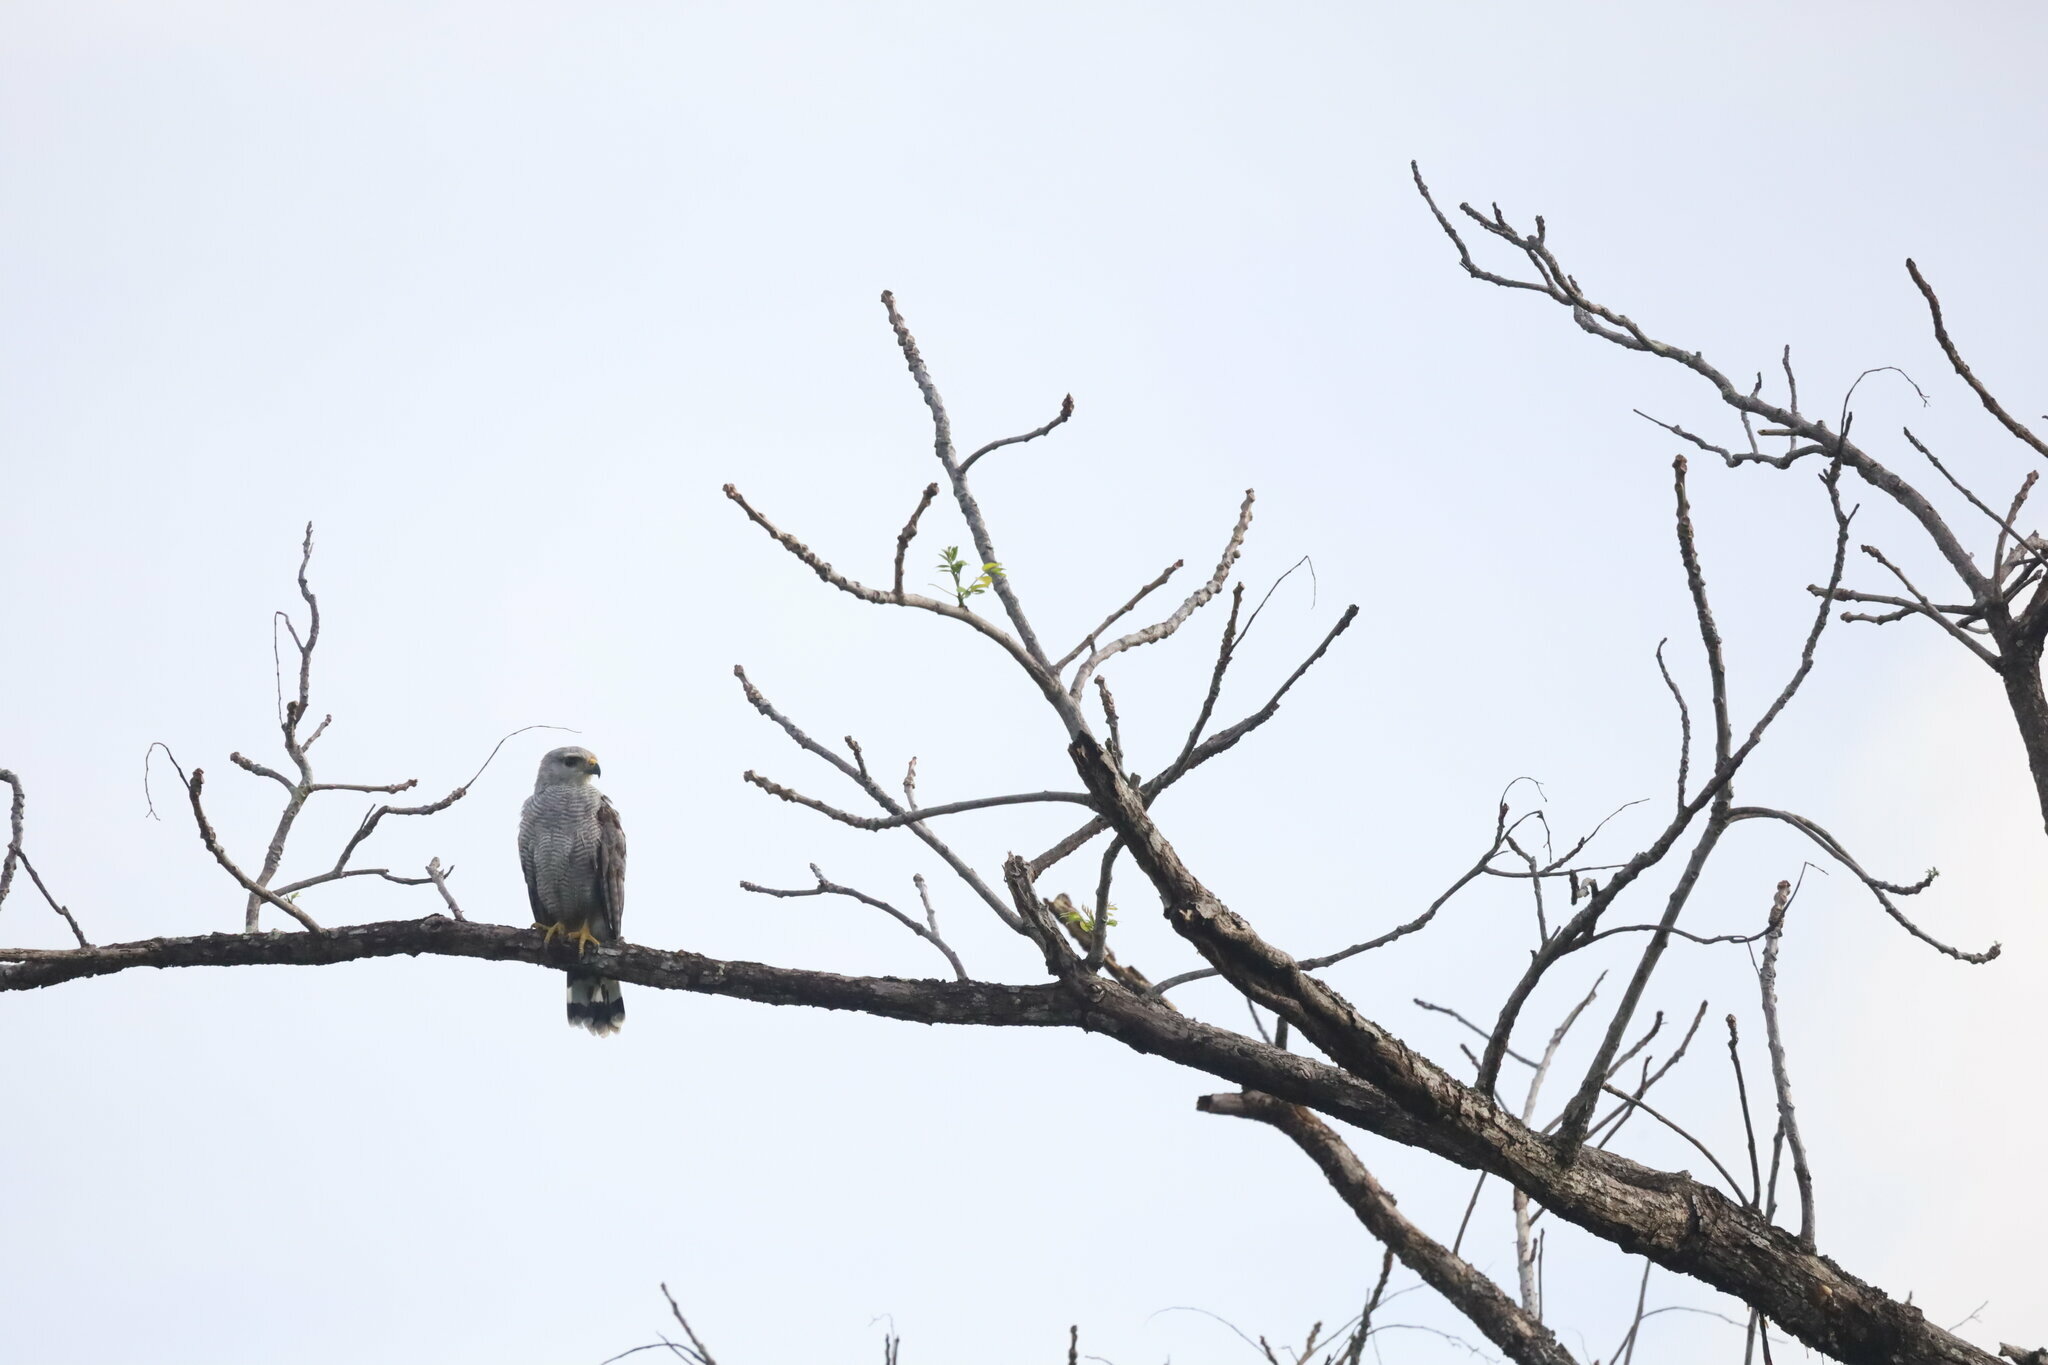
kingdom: Animalia
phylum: Chordata
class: Aves
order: Accipitriformes
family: Accipitridae
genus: Buteo
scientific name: Buteo nitidus
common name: Grey-lined hawk
